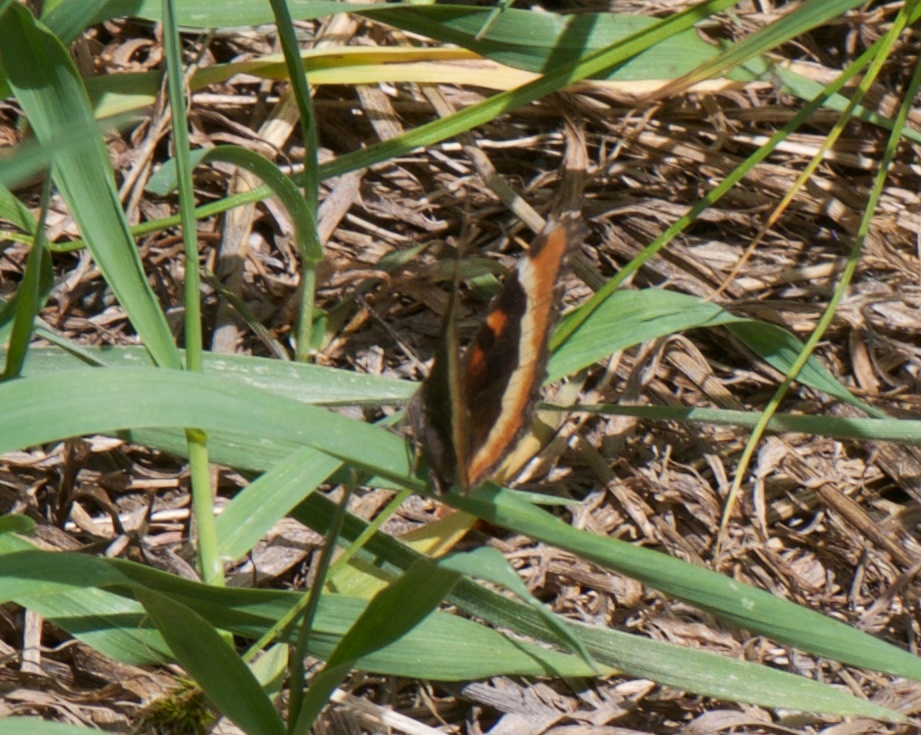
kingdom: Animalia
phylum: Arthropoda
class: Insecta
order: Lepidoptera
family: Nymphalidae
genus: Aglais
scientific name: Aglais milberti
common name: Milbert's tortoiseshell
